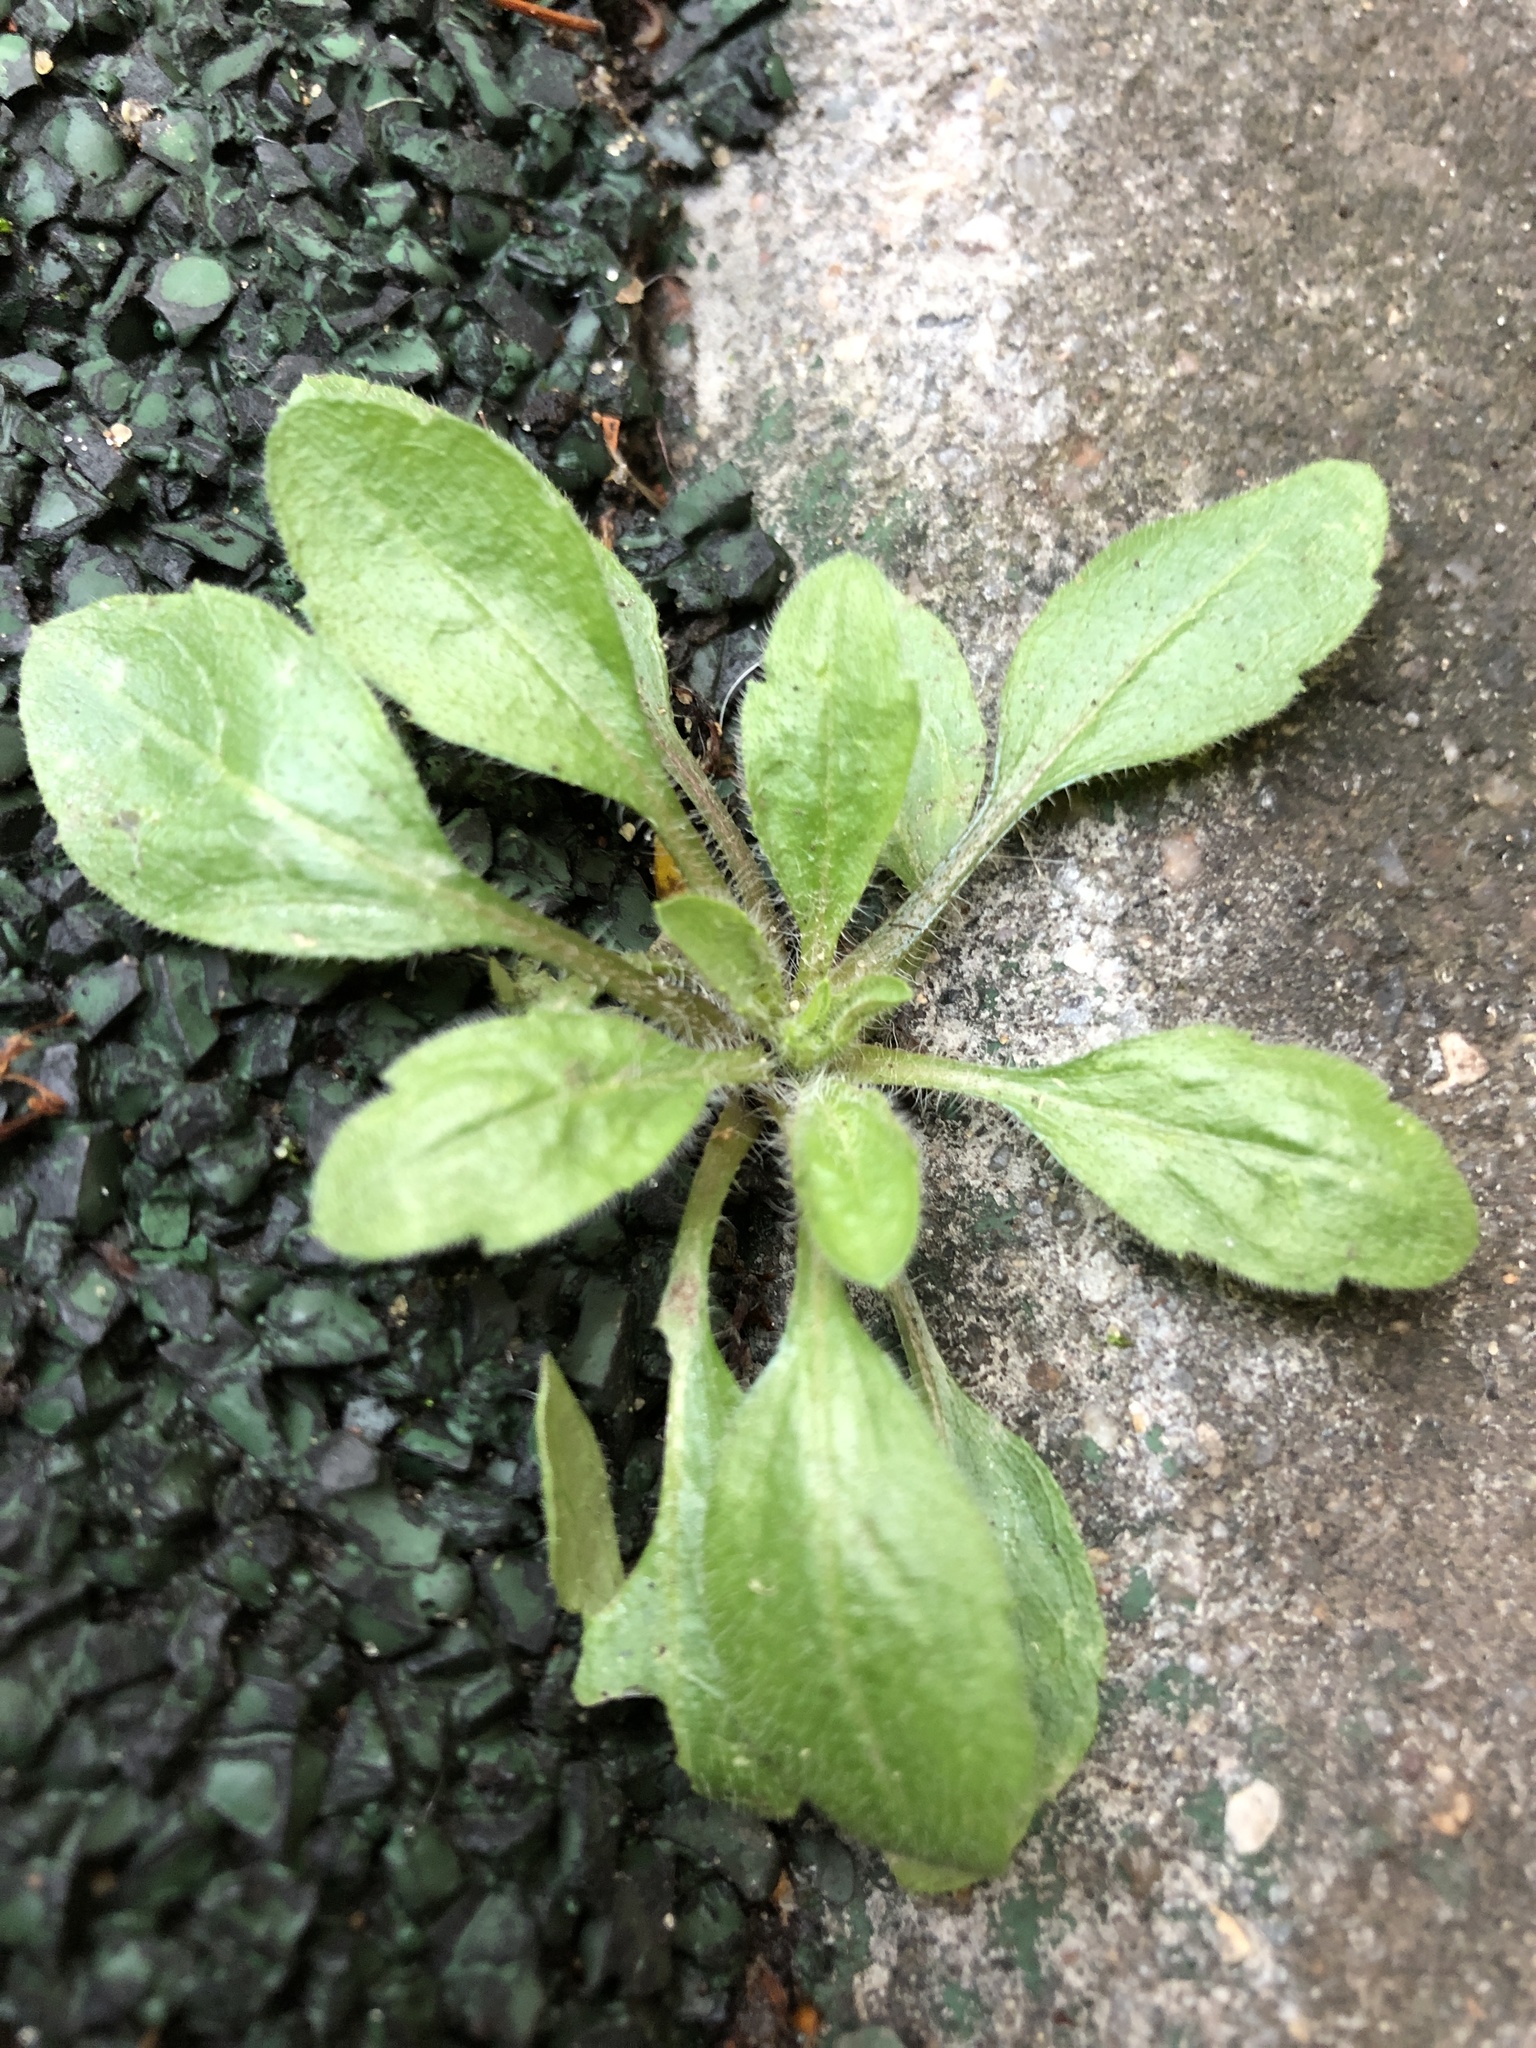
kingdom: Plantae
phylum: Tracheophyta
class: Magnoliopsida
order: Asterales
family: Asteraceae
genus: Erigeron
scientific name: Erigeron canadensis
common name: Canadian fleabane
